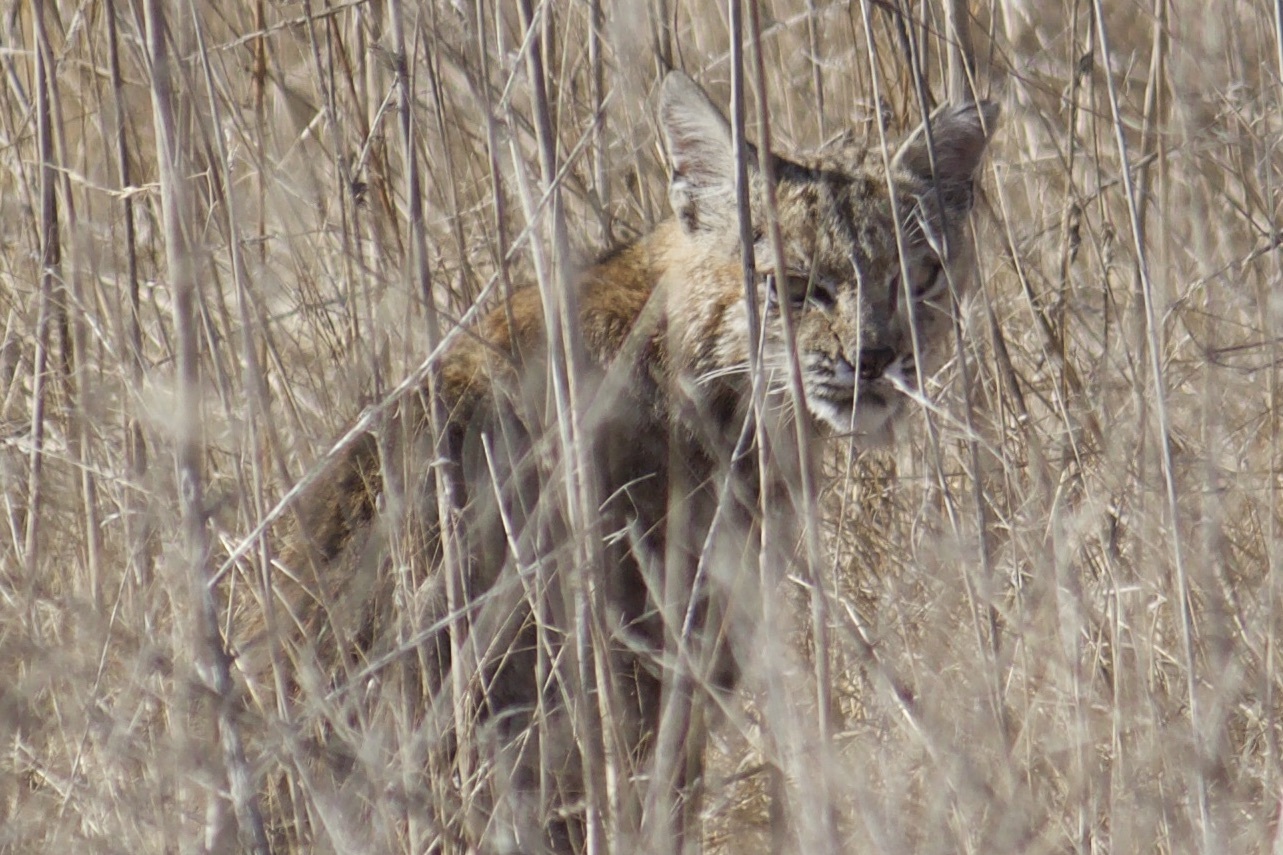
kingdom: Animalia
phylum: Chordata
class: Mammalia
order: Carnivora
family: Felidae
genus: Lynx
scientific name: Lynx rufus
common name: Bobcat
